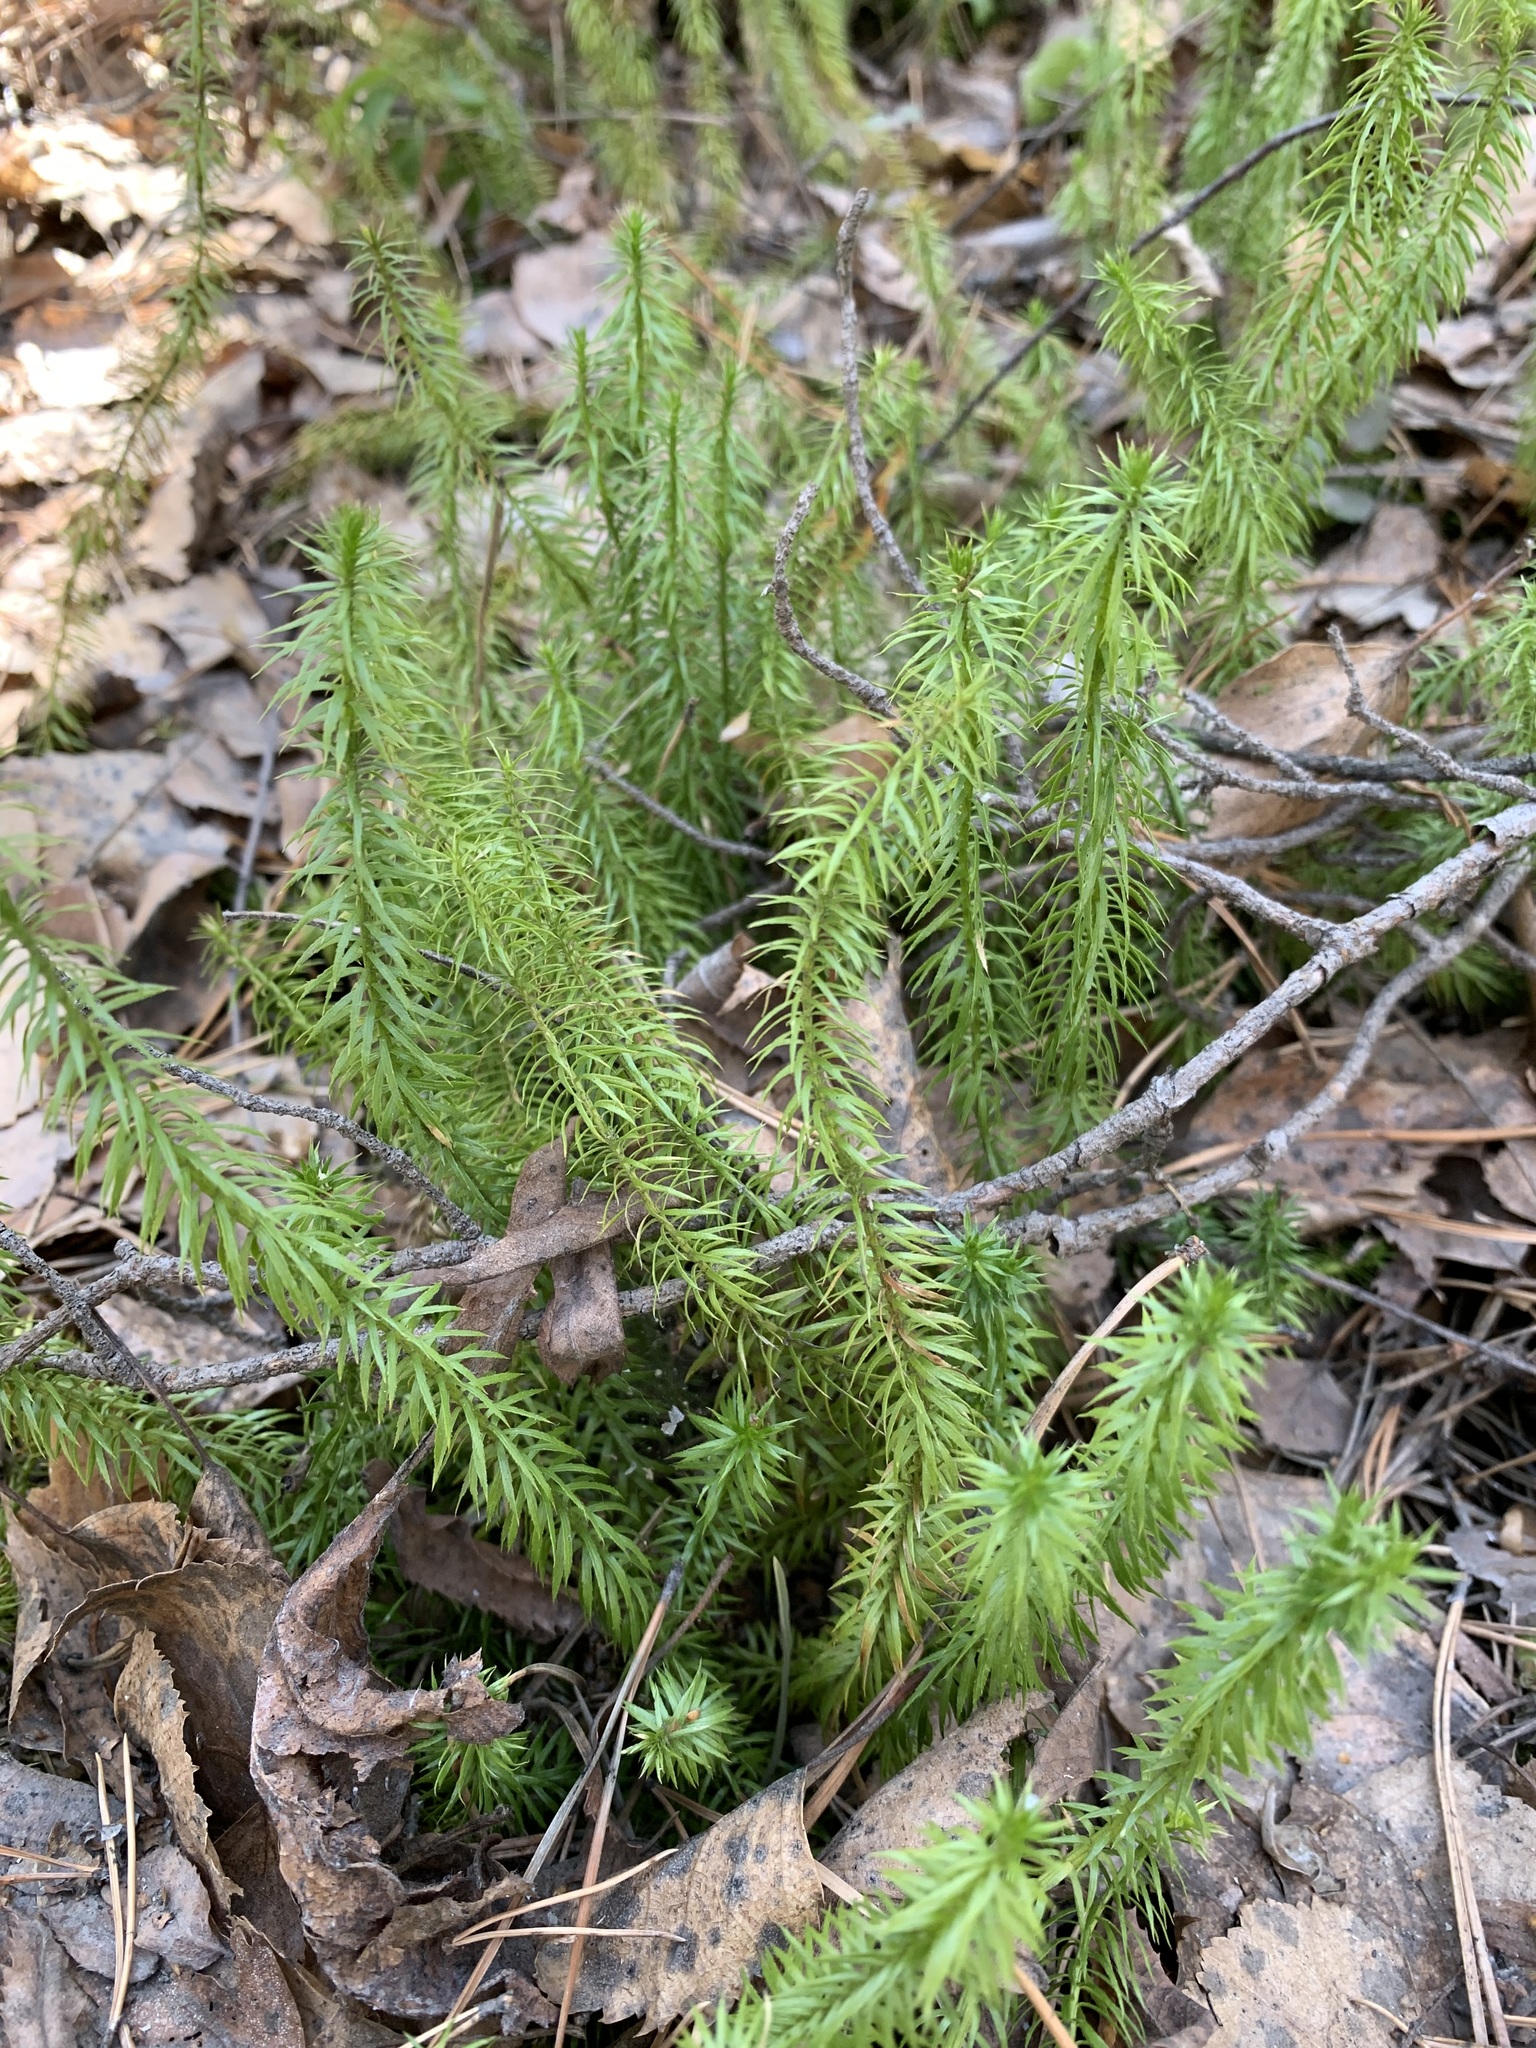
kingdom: Plantae
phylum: Tracheophyta
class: Lycopodiopsida
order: Lycopodiales
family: Lycopodiaceae
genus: Spinulum
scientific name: Spinulum annotinum
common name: Interrupted club-moss
